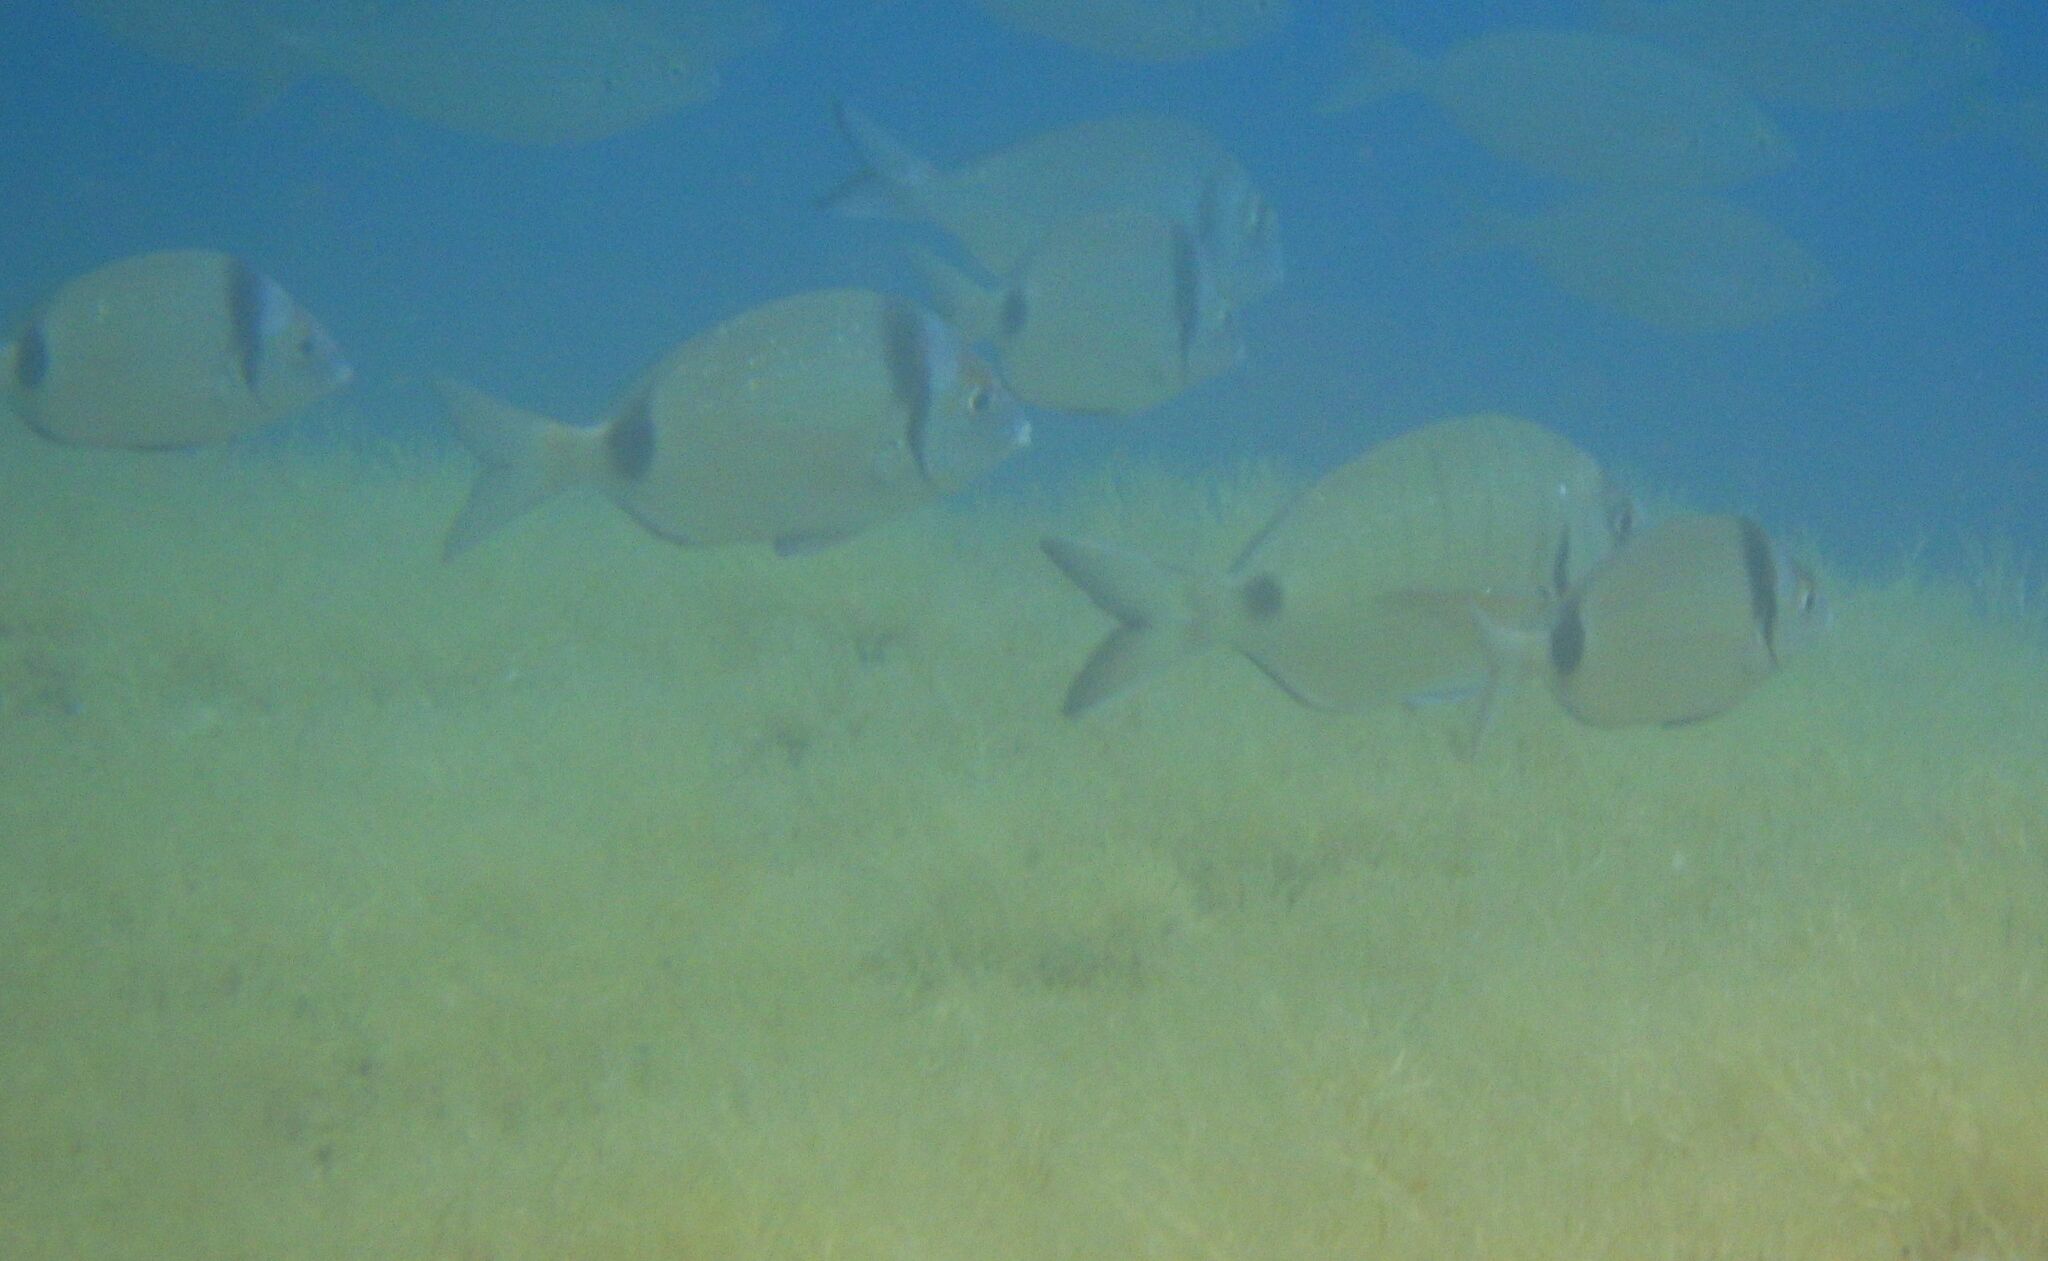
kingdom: Animalia
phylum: Chordata
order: Perciformes
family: Sparidae
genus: Diplodus
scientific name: Diplodus vulgaris
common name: Common two-banded seabream
